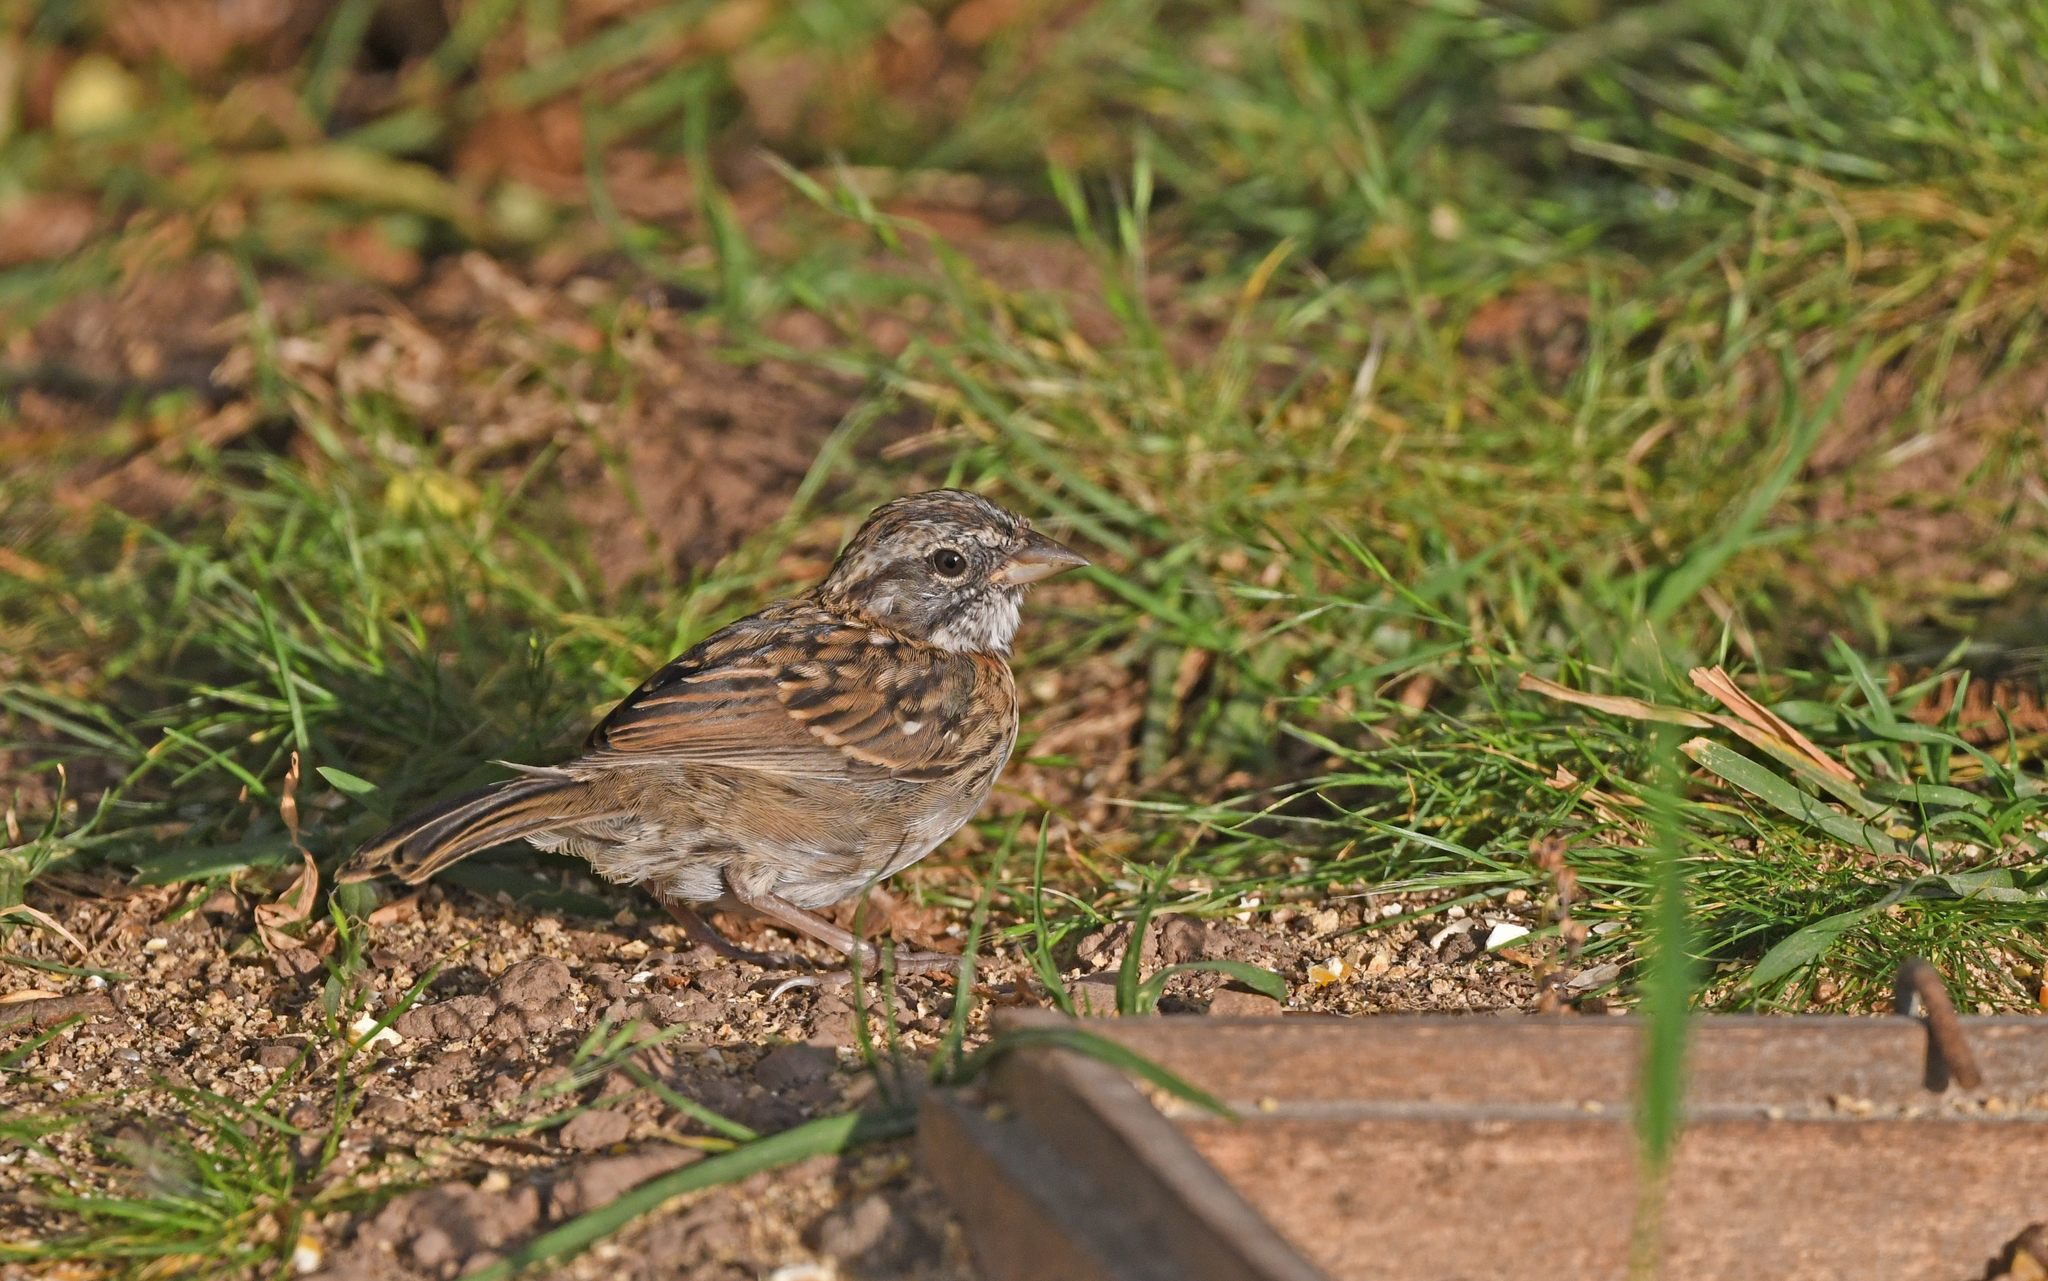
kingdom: Animalia
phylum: Chordata
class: Aves
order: Passeriformes
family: Passerellidae
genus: Zonotrichia
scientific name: Zonotrichia capensis
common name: Rufous-collared sparrow
